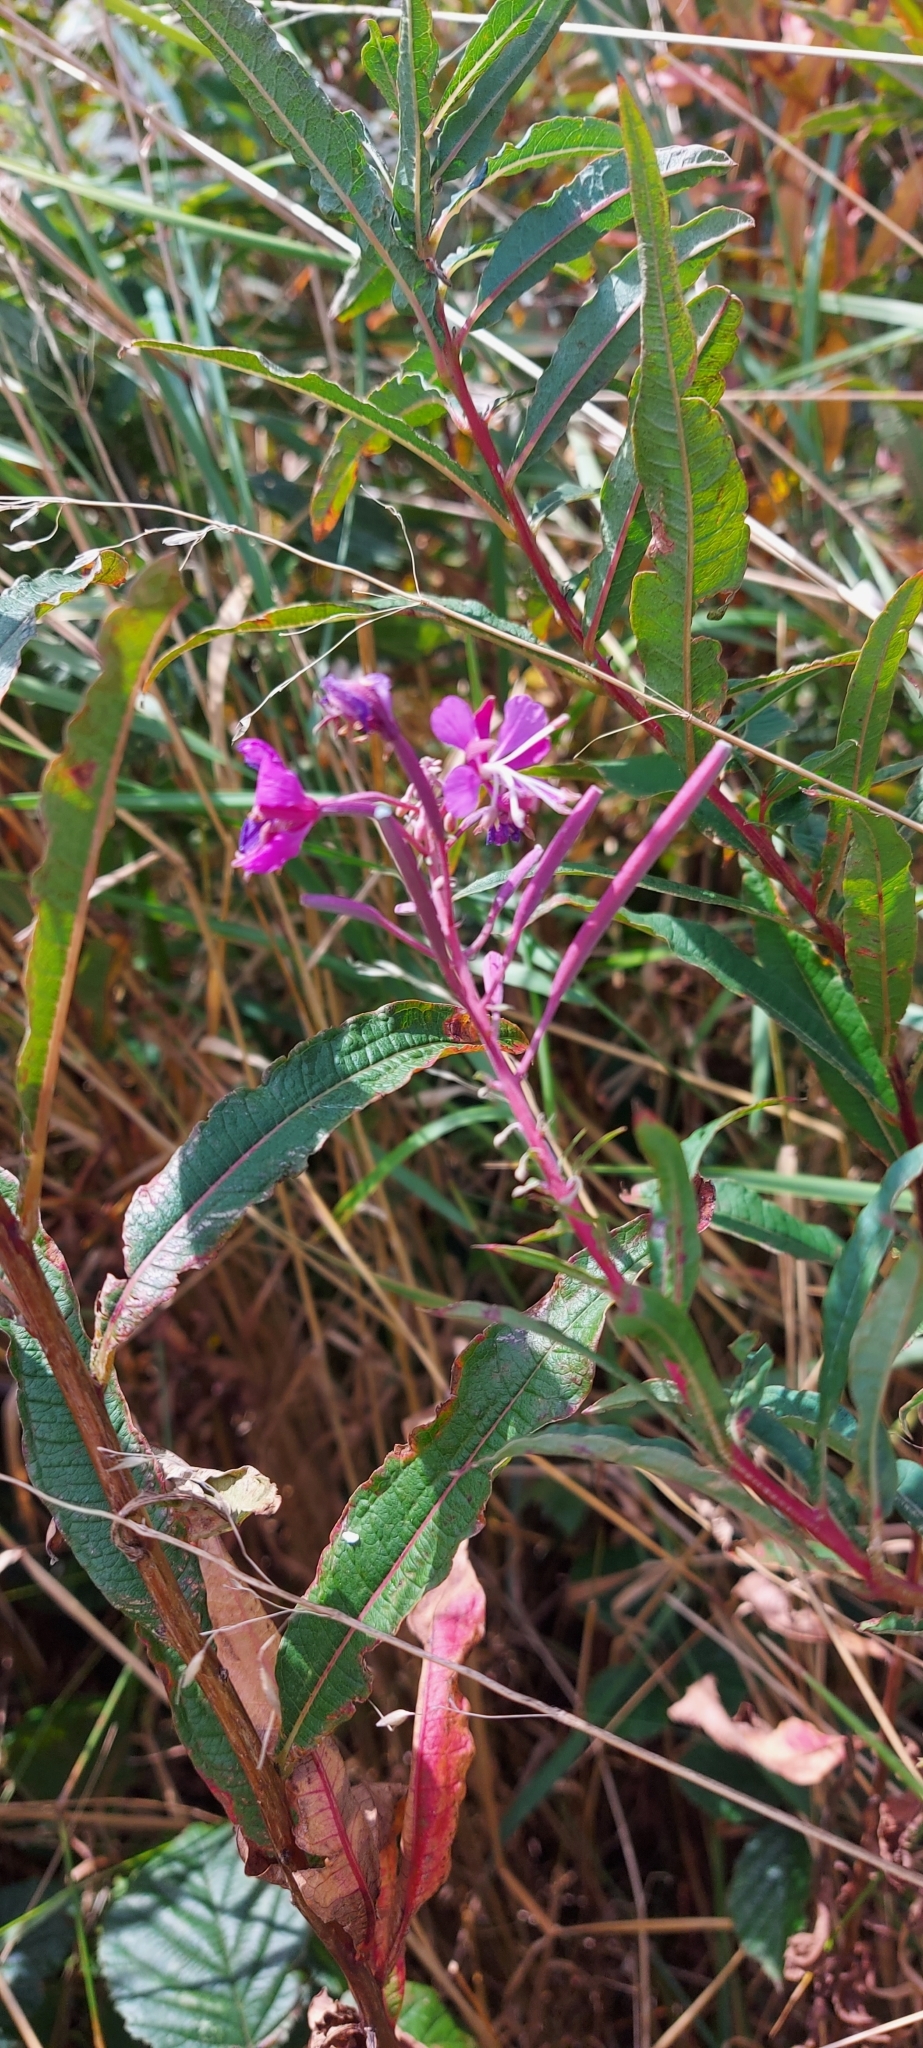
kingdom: Plantae
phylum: Tracheophyta
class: Magnoliopsida
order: Myrtales
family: Onagraceae
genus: Chamaenerion
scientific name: Chamaenerion angustifolium
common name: Fireweed
